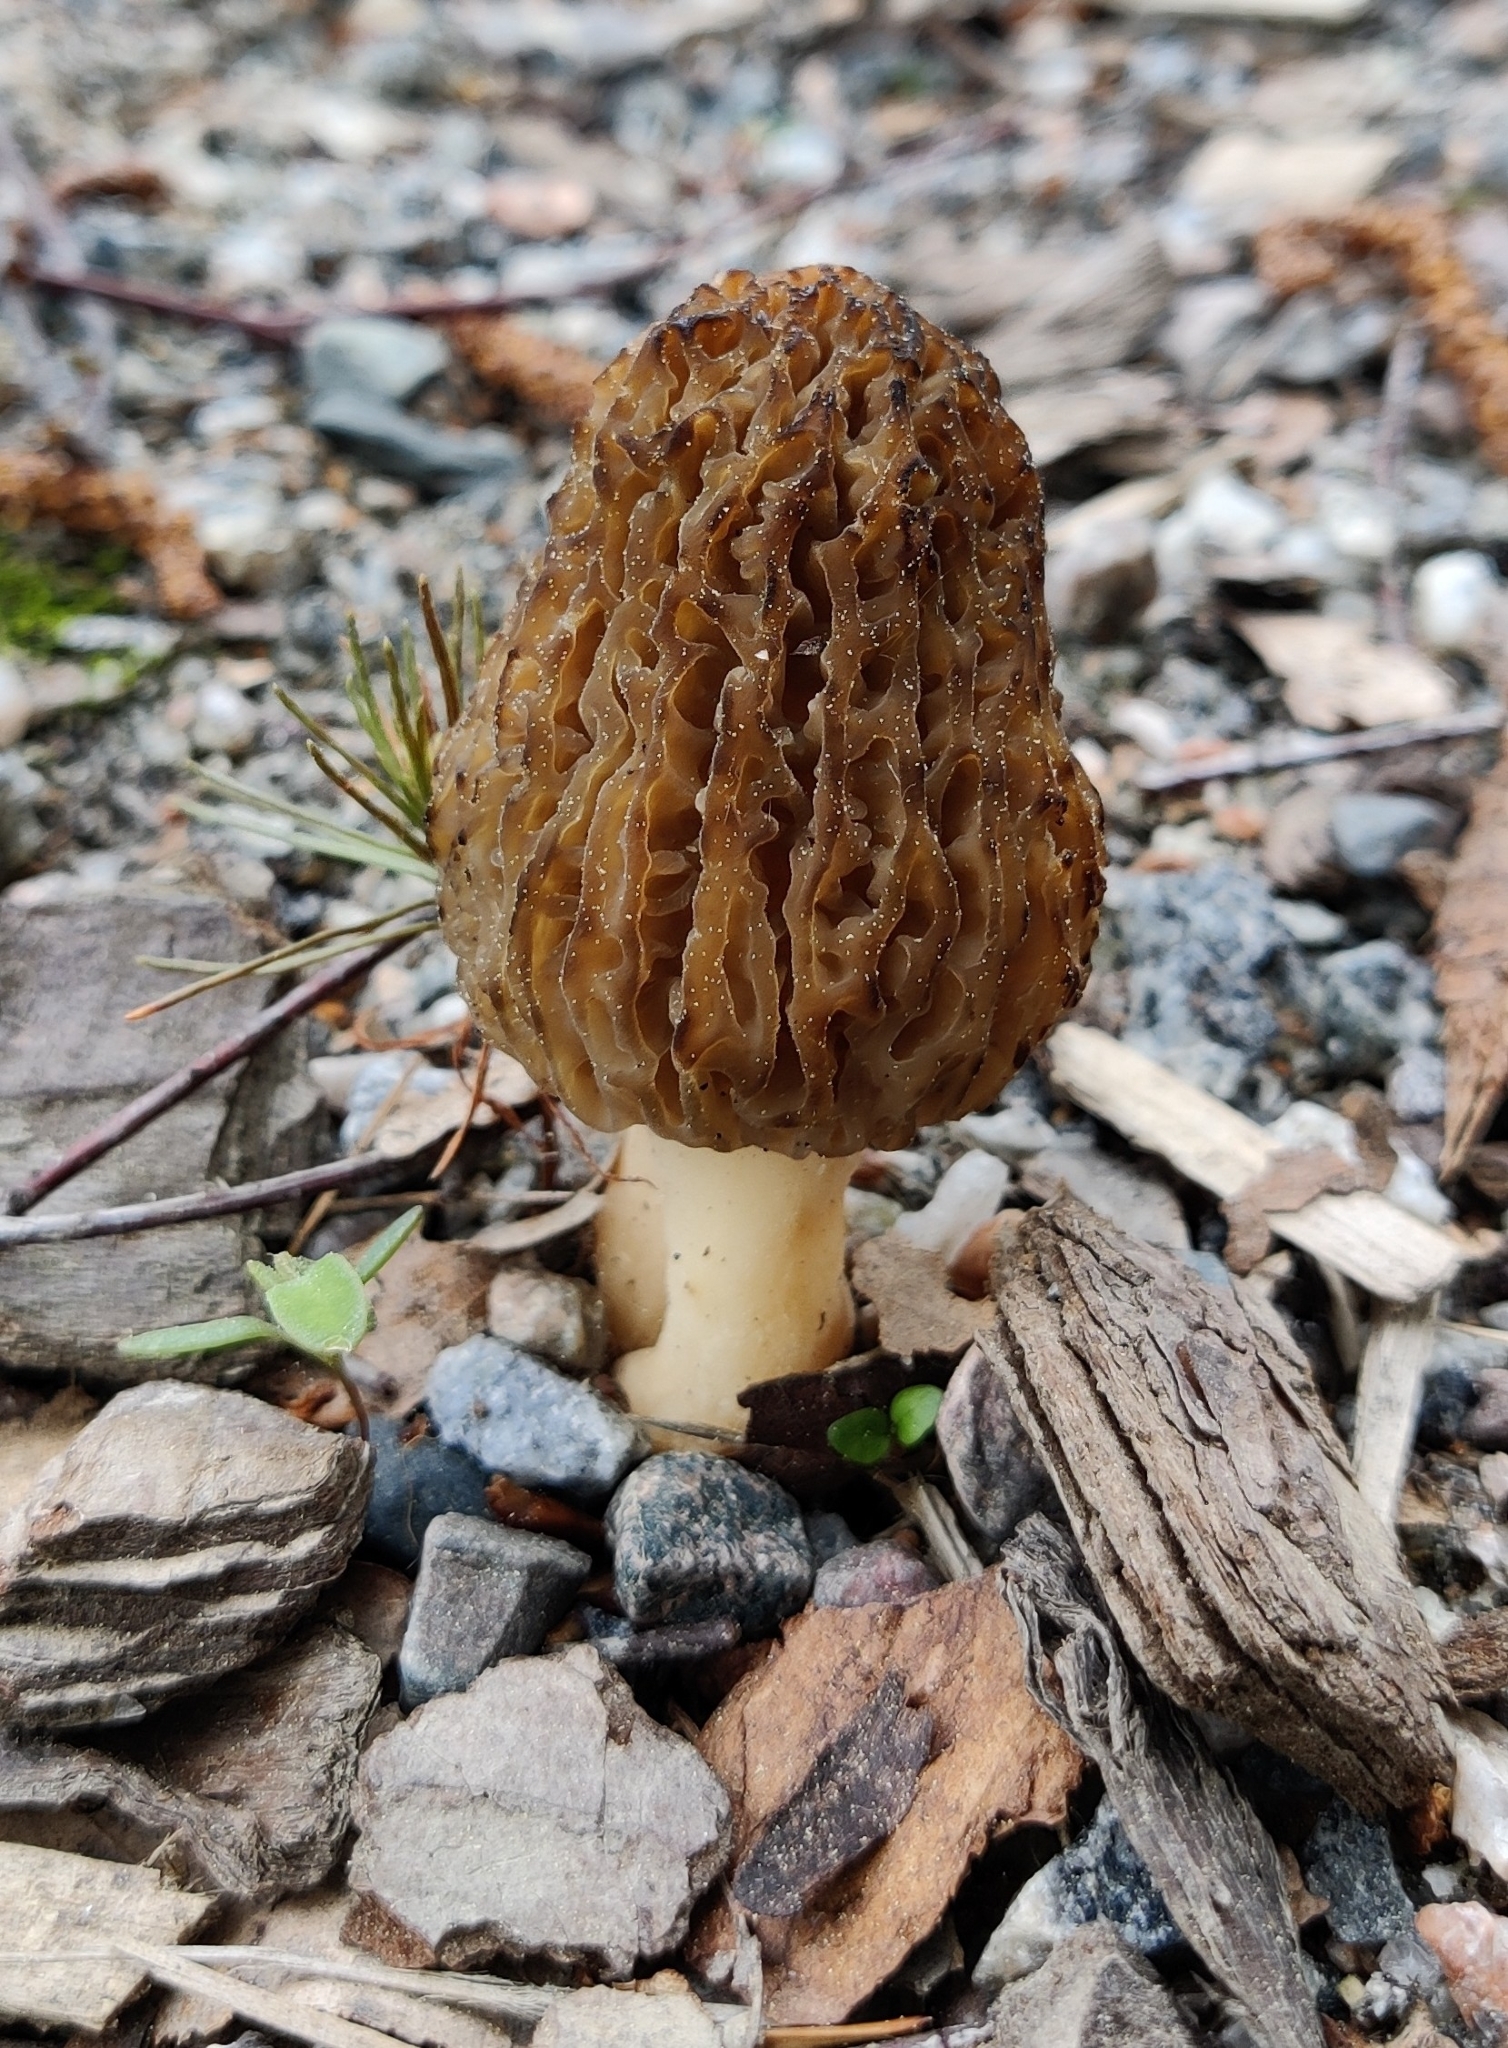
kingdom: Fungi
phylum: Ascomycota
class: Pezizomycetes
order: Pezizales
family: Morchellaceae
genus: Morchella
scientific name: Morchella elata
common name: Black morel
